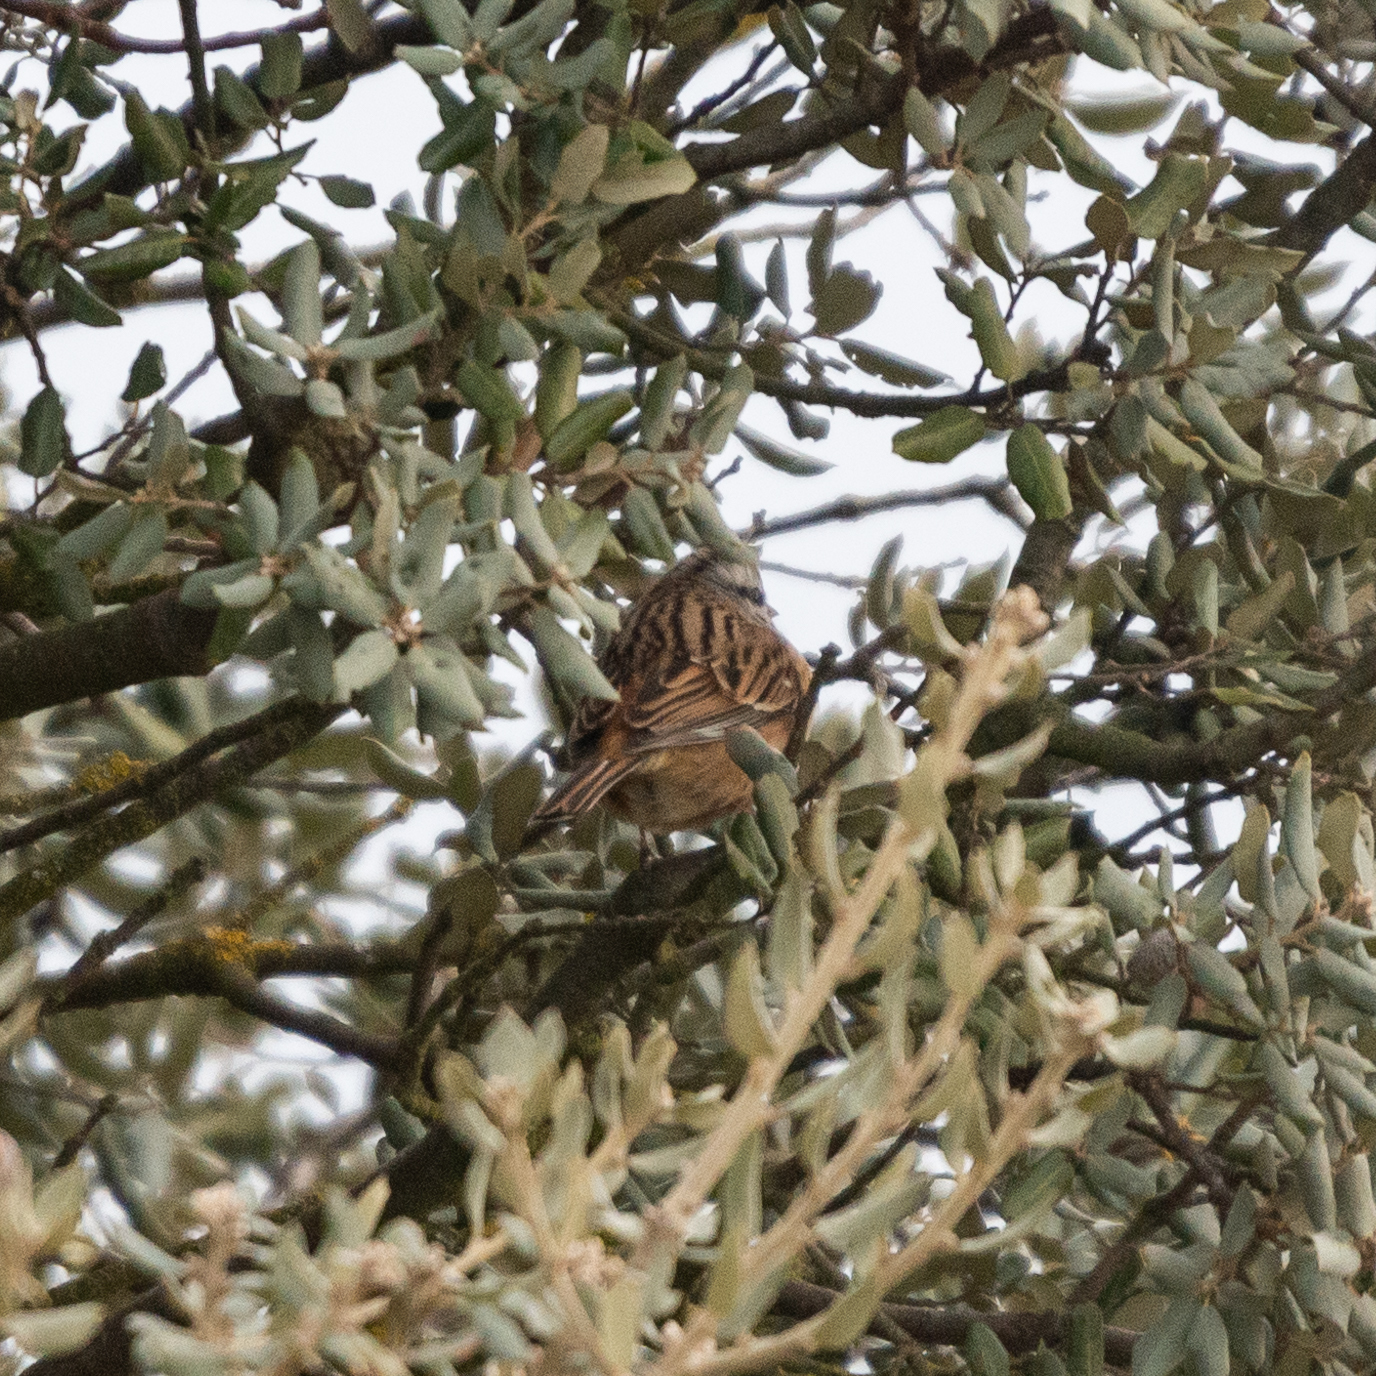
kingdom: Animalia
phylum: Chordata
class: Aves
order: Passeriformes
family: Emberizidae
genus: Emberiza
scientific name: Emberiza cia
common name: Rock bunting
